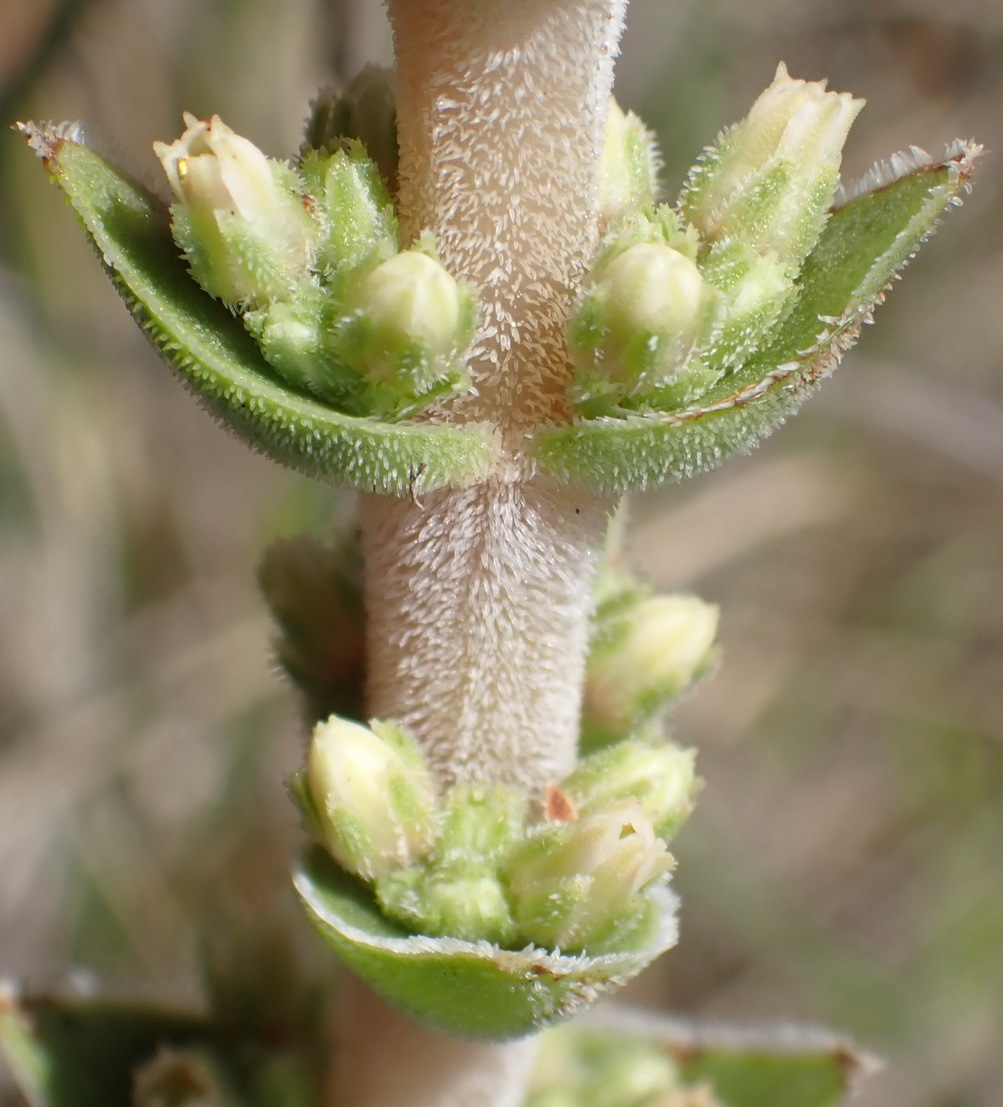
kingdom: Plantae
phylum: Tracheophyta
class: Magnoliopsida
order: Saxifragales
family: Crassulaceae
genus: Crassula
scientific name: Crassula capitella
